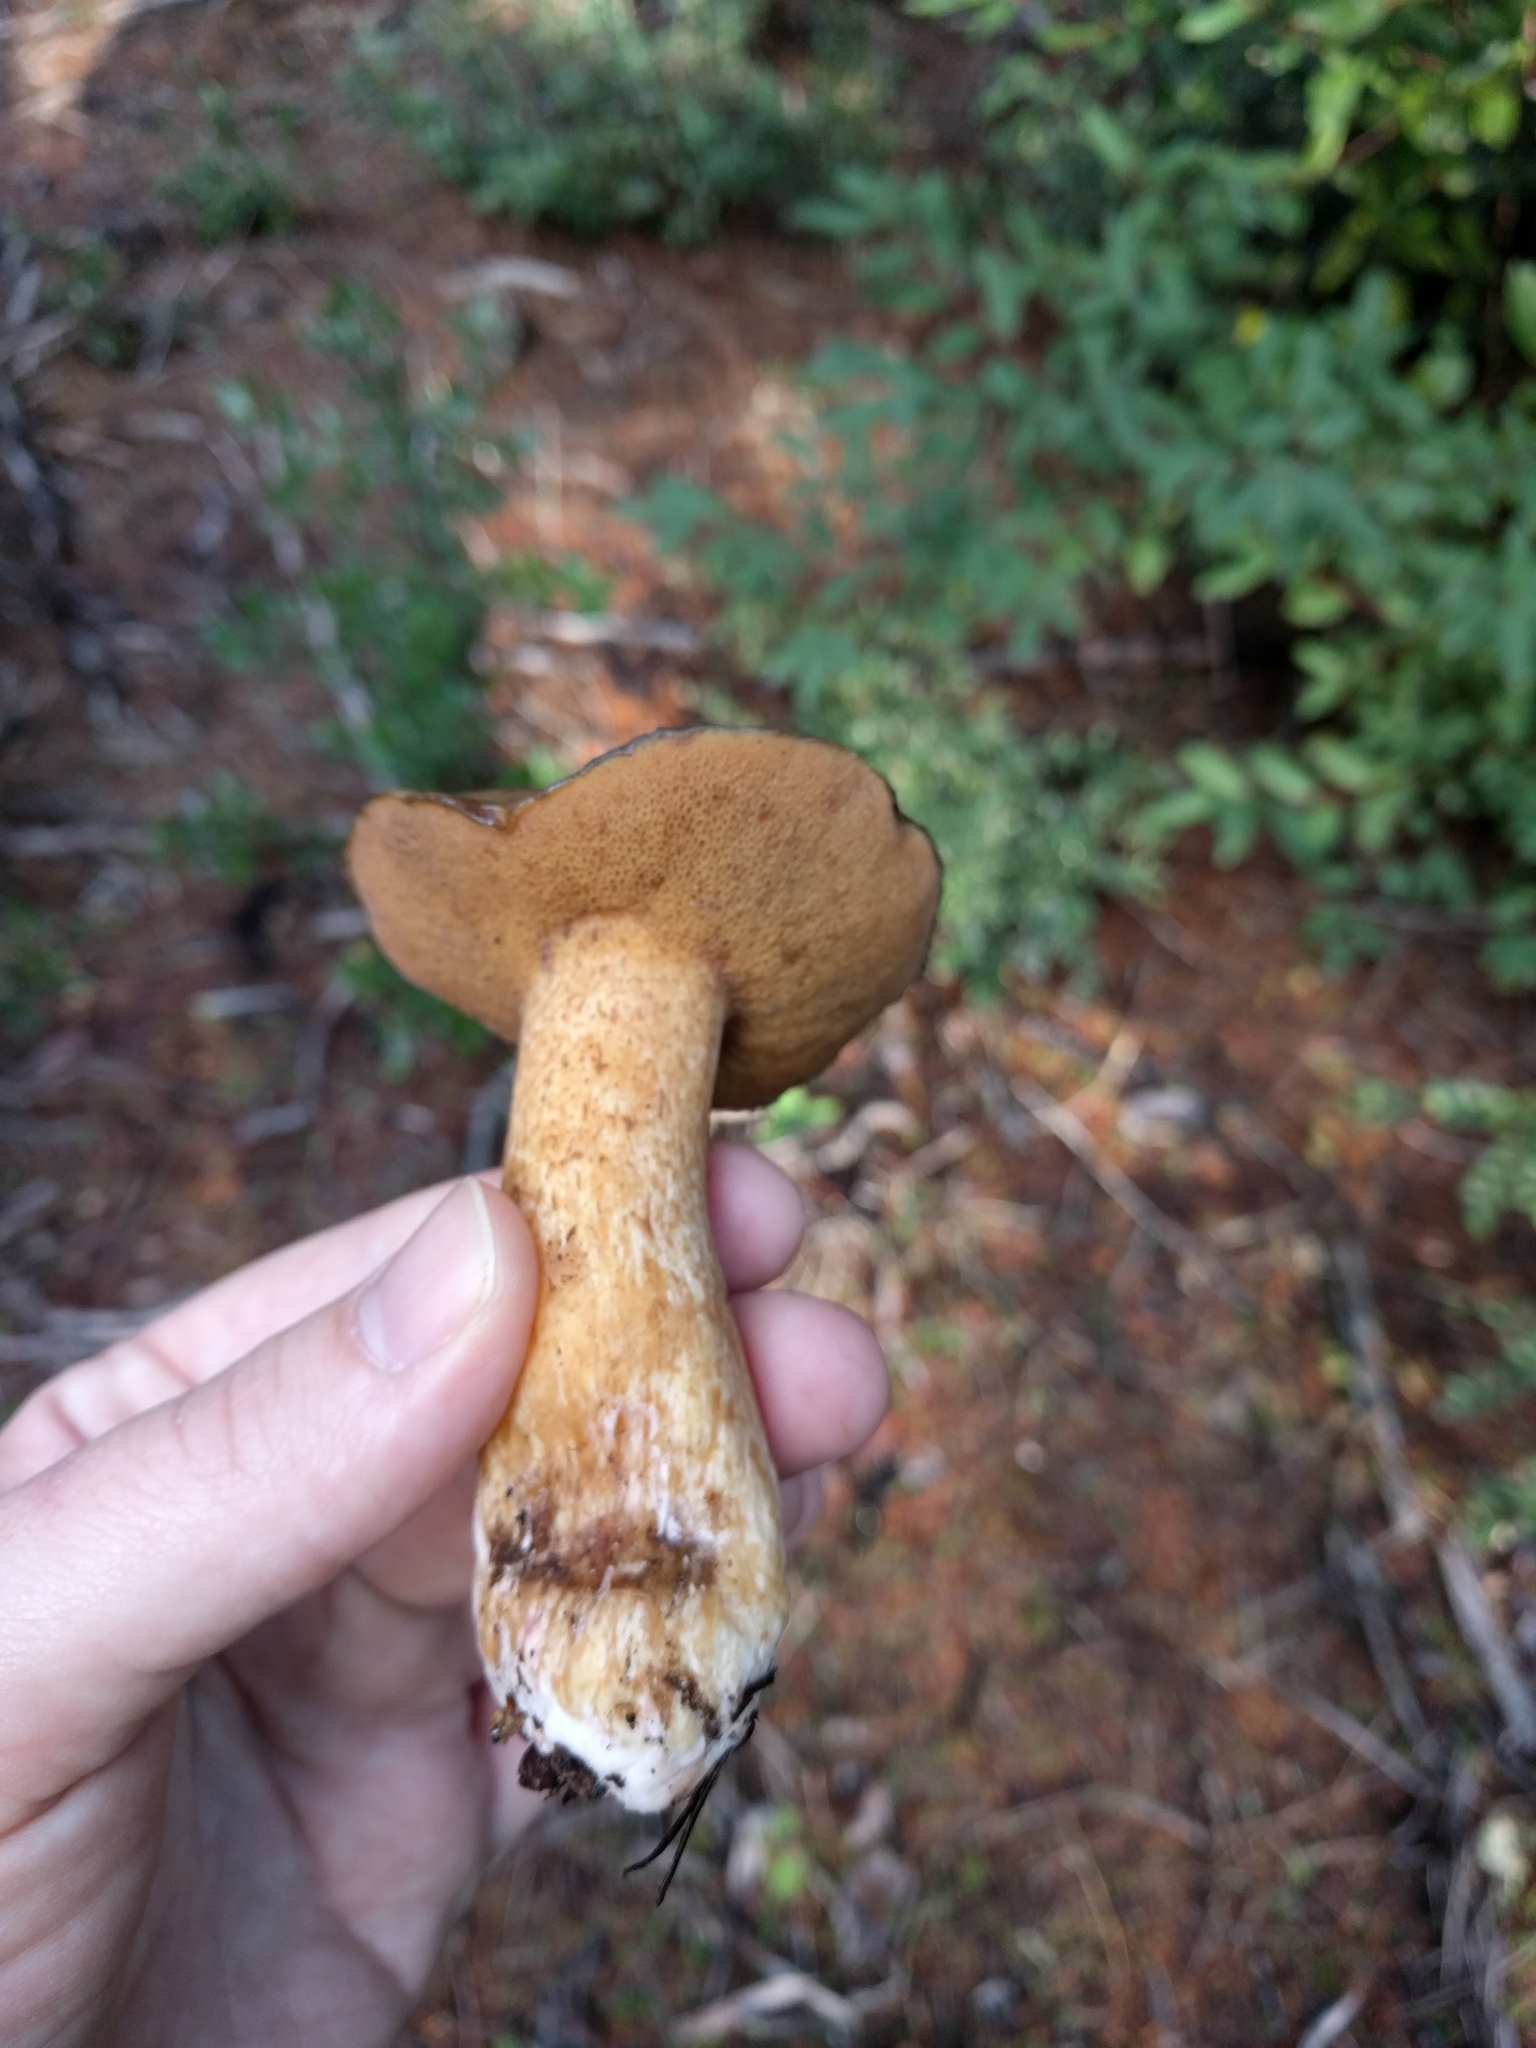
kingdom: Fungi
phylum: Basidiomycota
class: Agaricomycetes
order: Boletales
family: Suillaceae
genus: Suillus
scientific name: Suillus pungens
